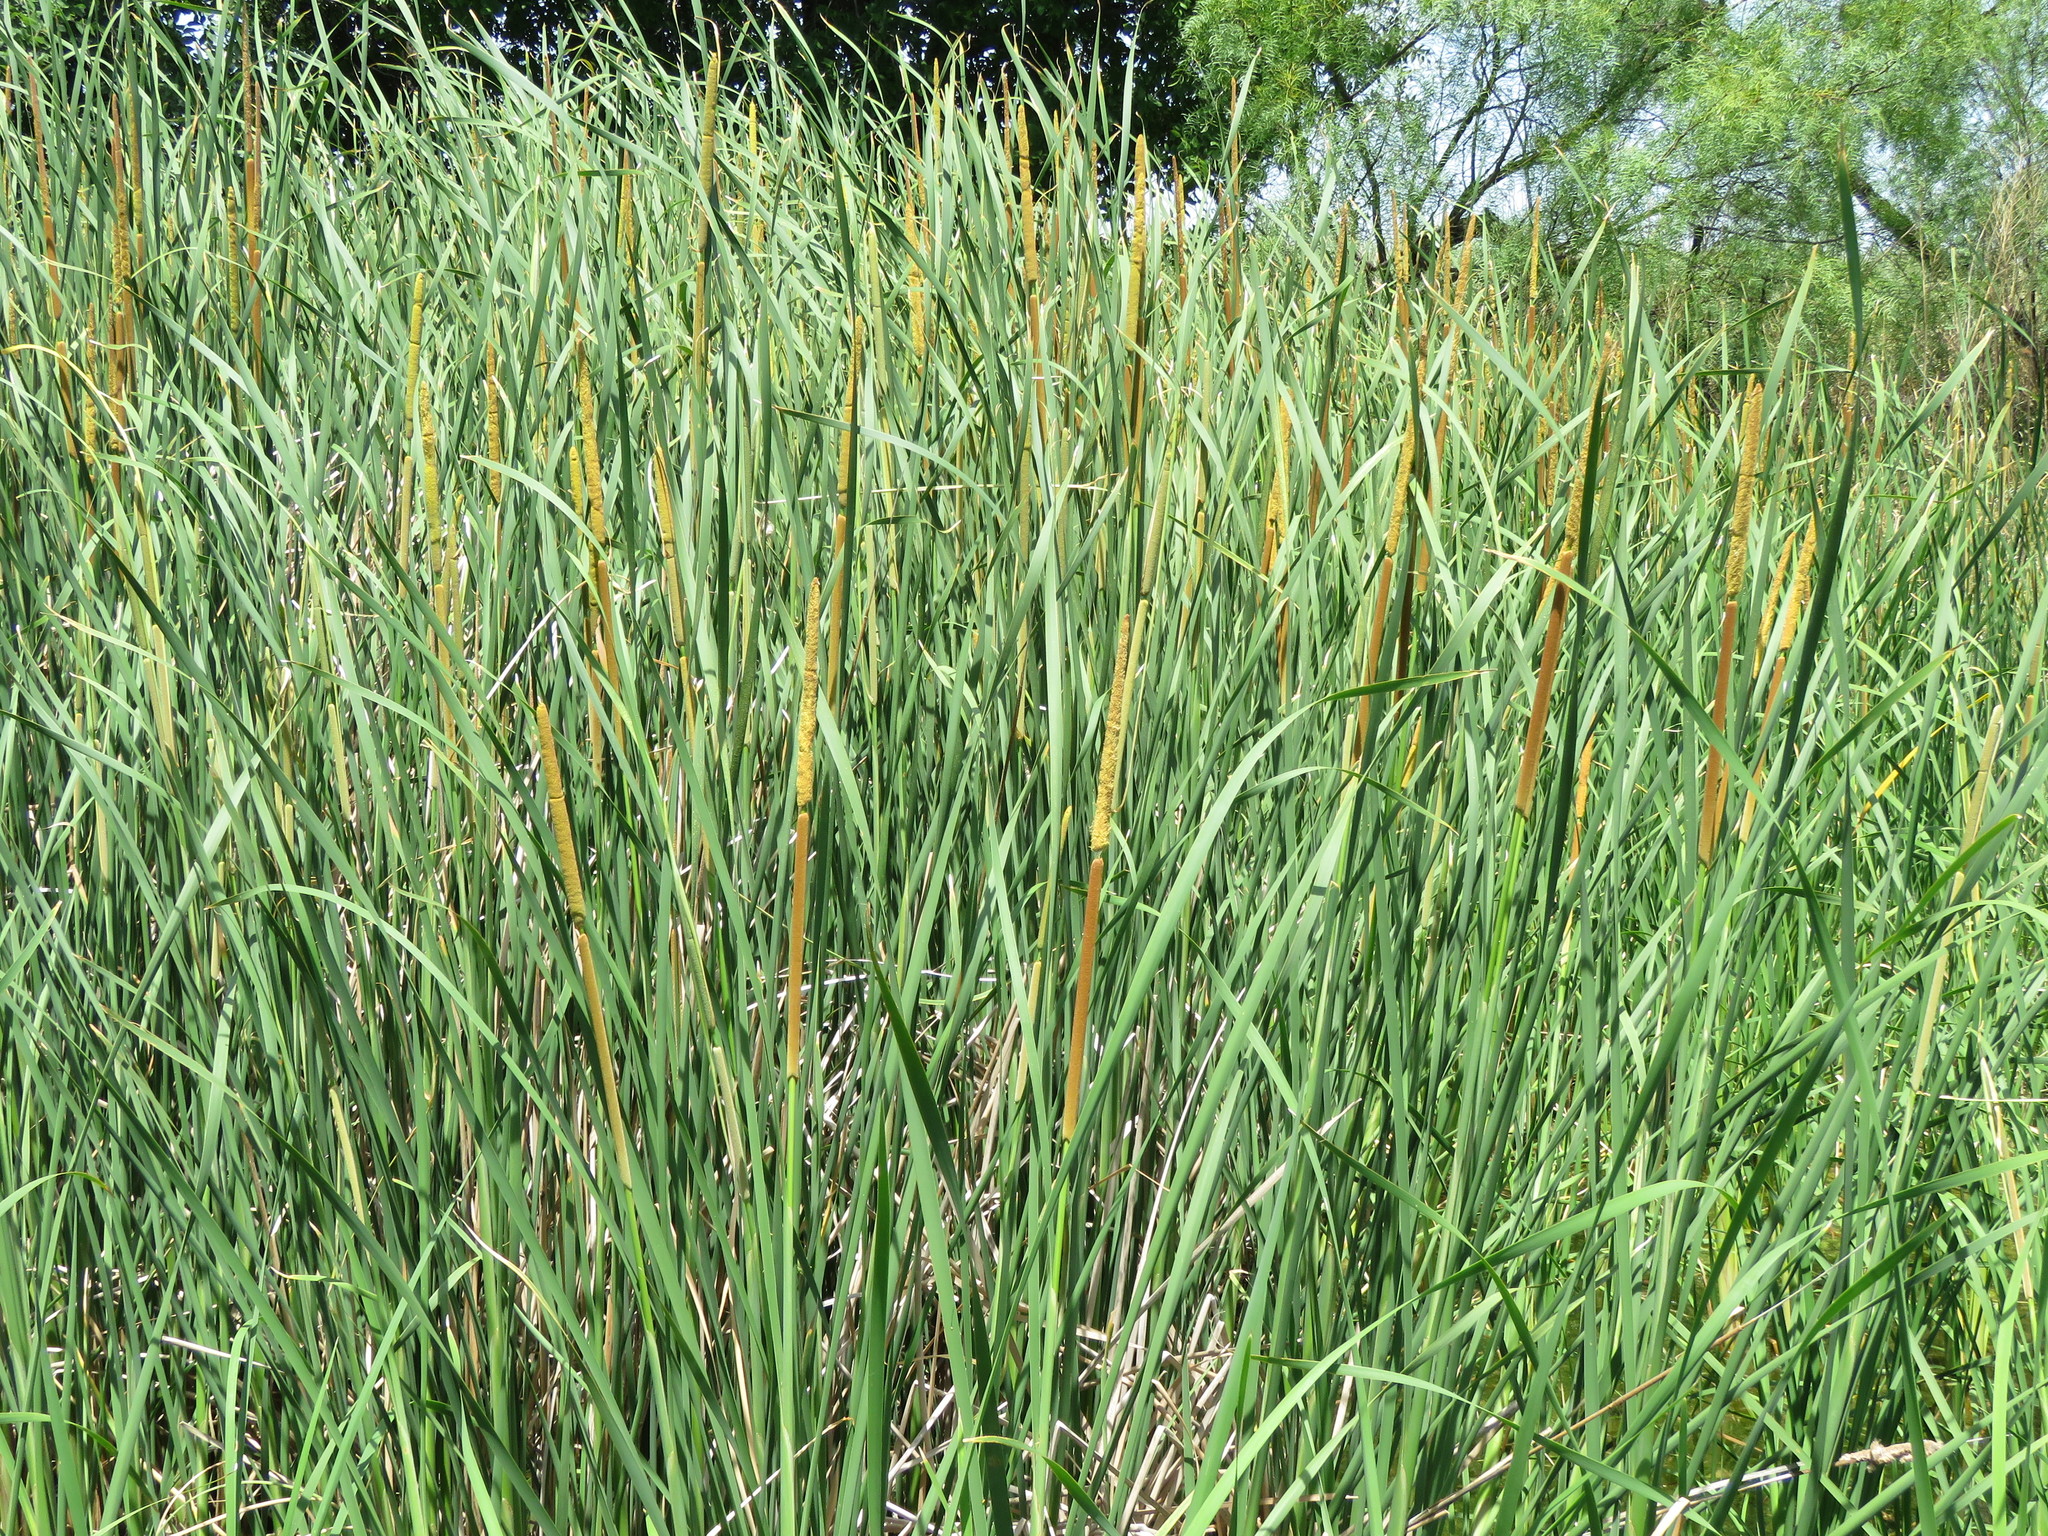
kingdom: Plantae
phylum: Tracheophyta
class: Liliopsida
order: Poales
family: Typhaceae
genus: Typha
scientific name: Typha domingensis
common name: Southern cattail
